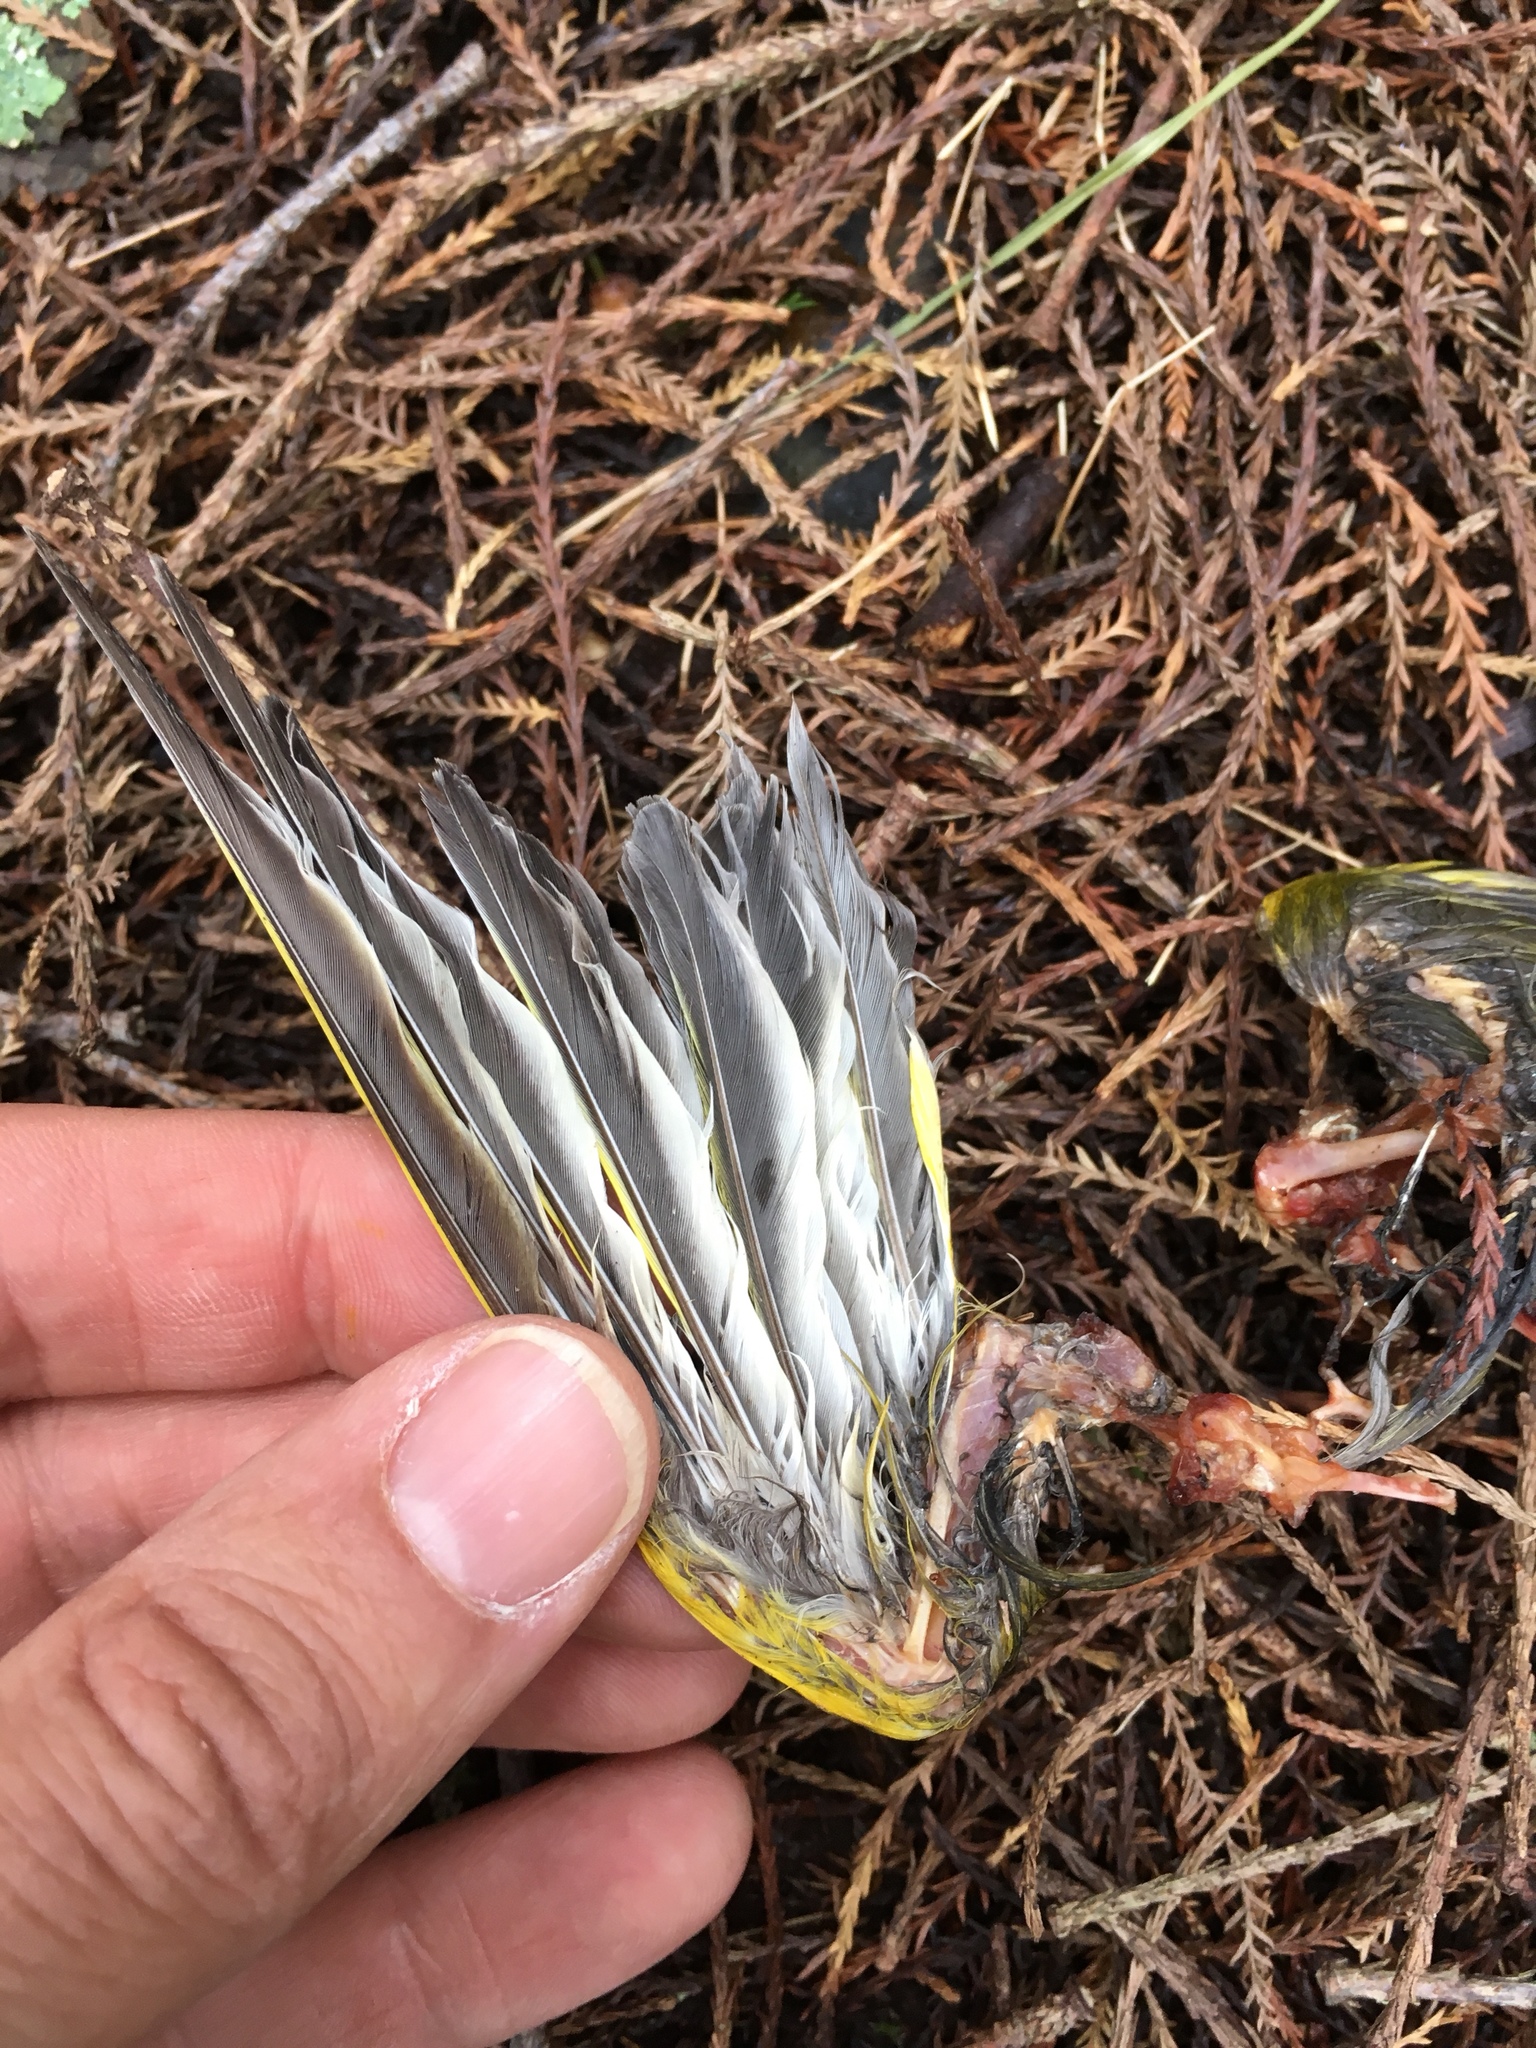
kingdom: Plantae
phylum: Tracheophyta
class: Liliopsida
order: Poales
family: Poaceae
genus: Chloris
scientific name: Chloris chloris
